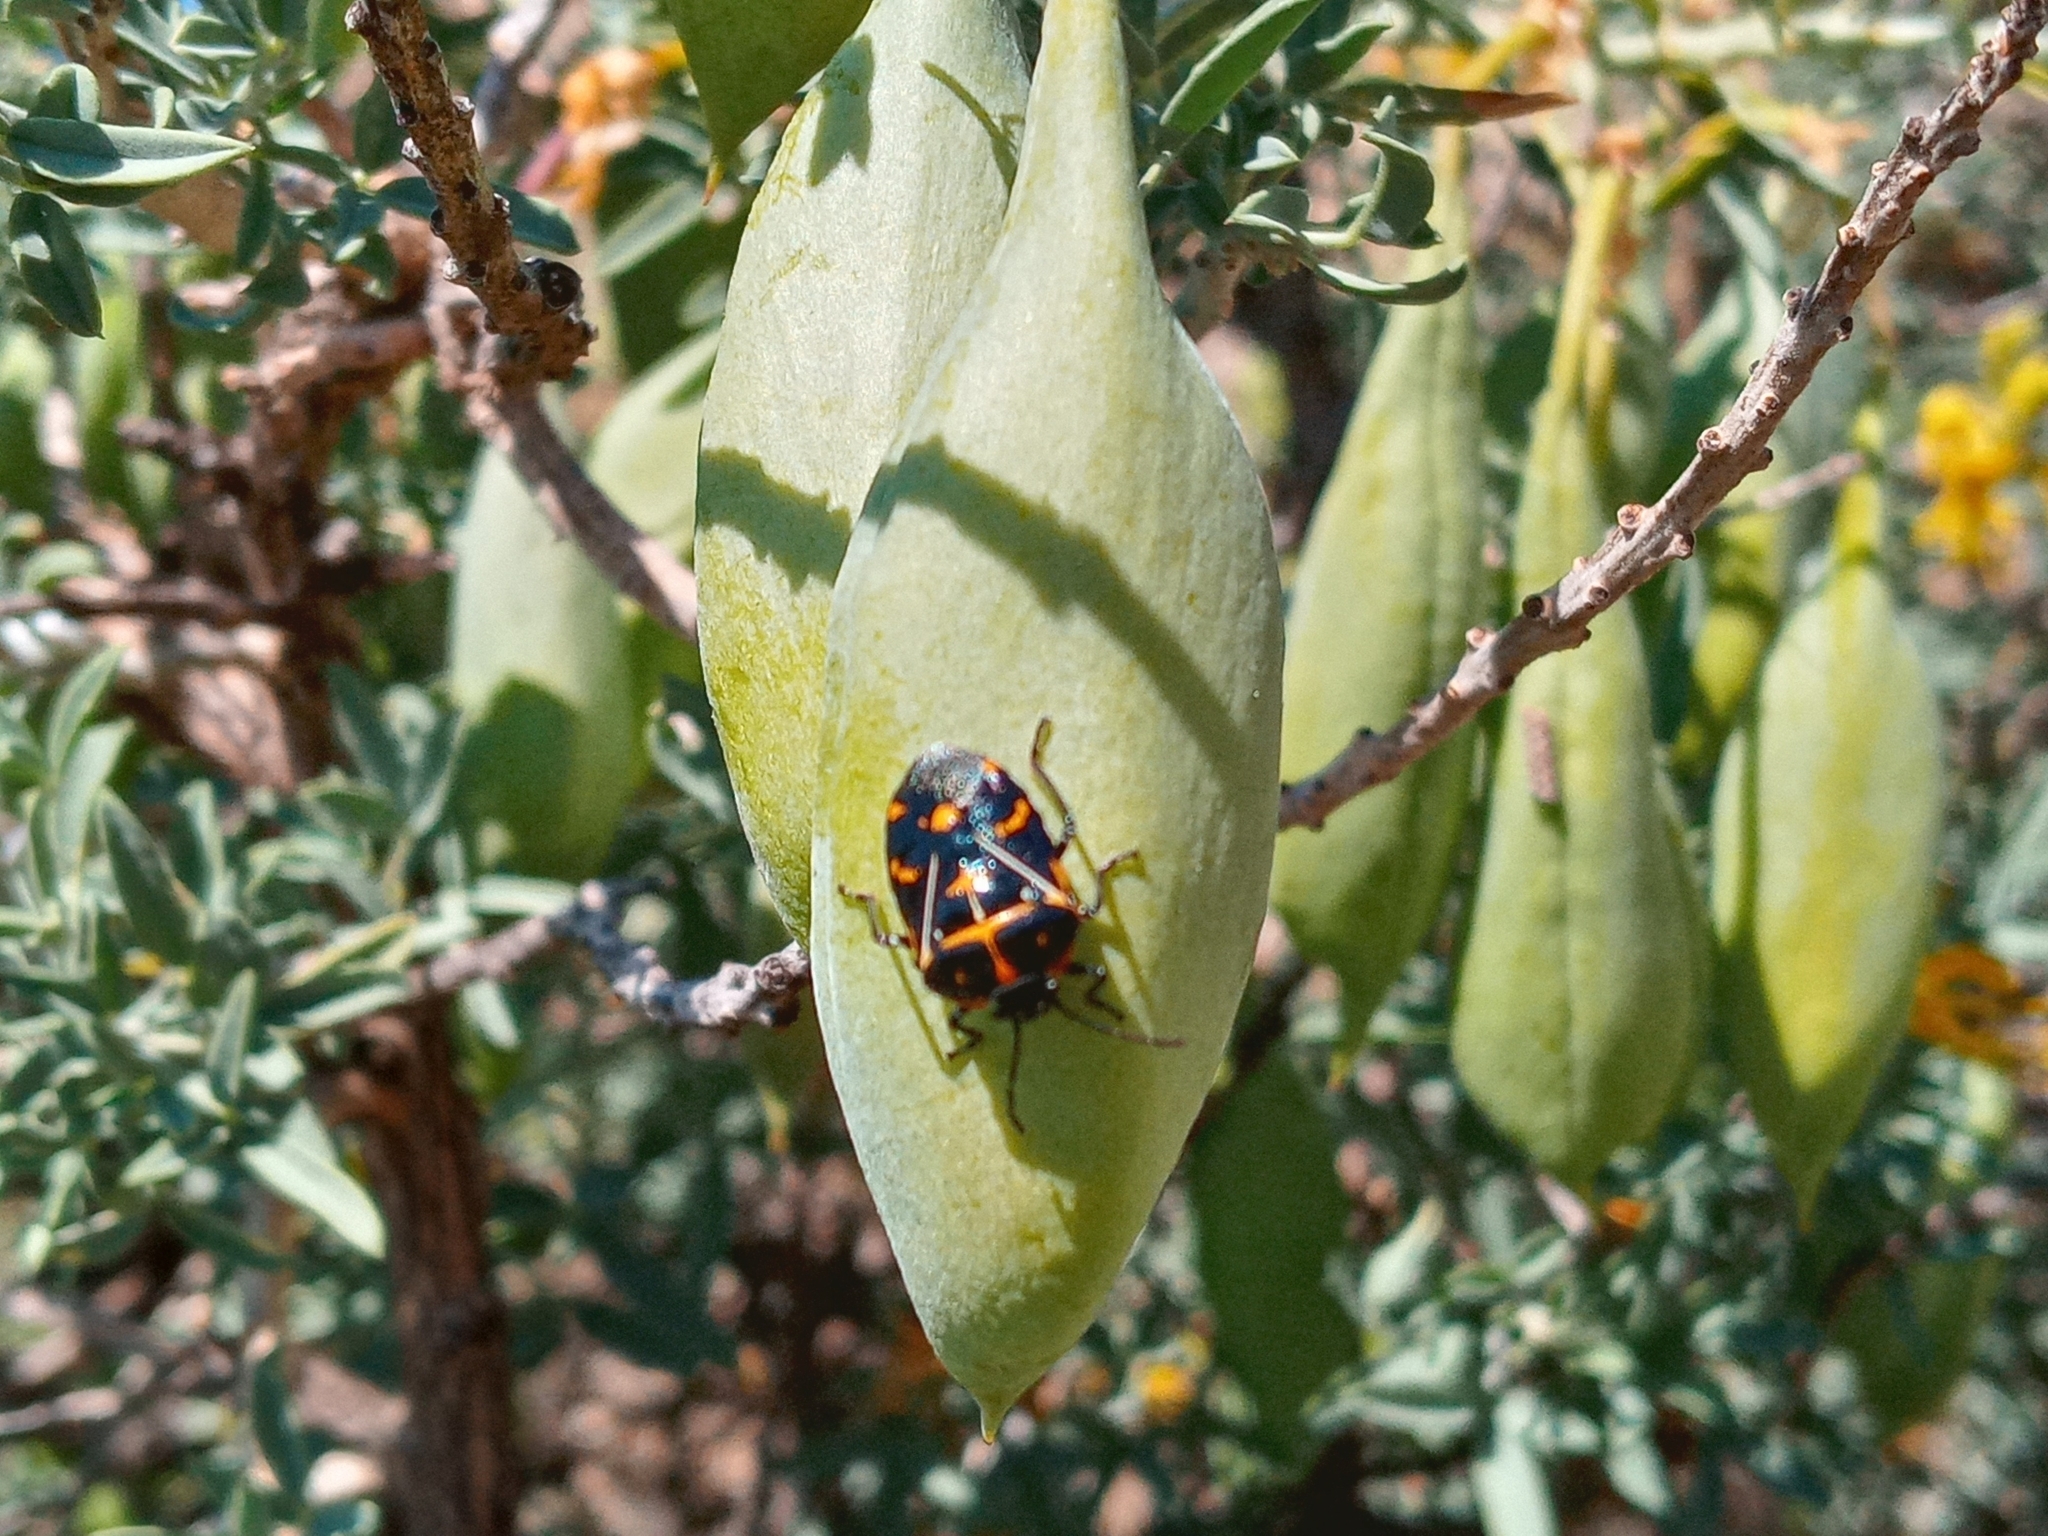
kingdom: Animalia
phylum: Arthropoda
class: Insecta
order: Hemiptera
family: Pentatomidae
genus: Murgantia
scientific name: Murgantia histrionica
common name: Harlequin bug
